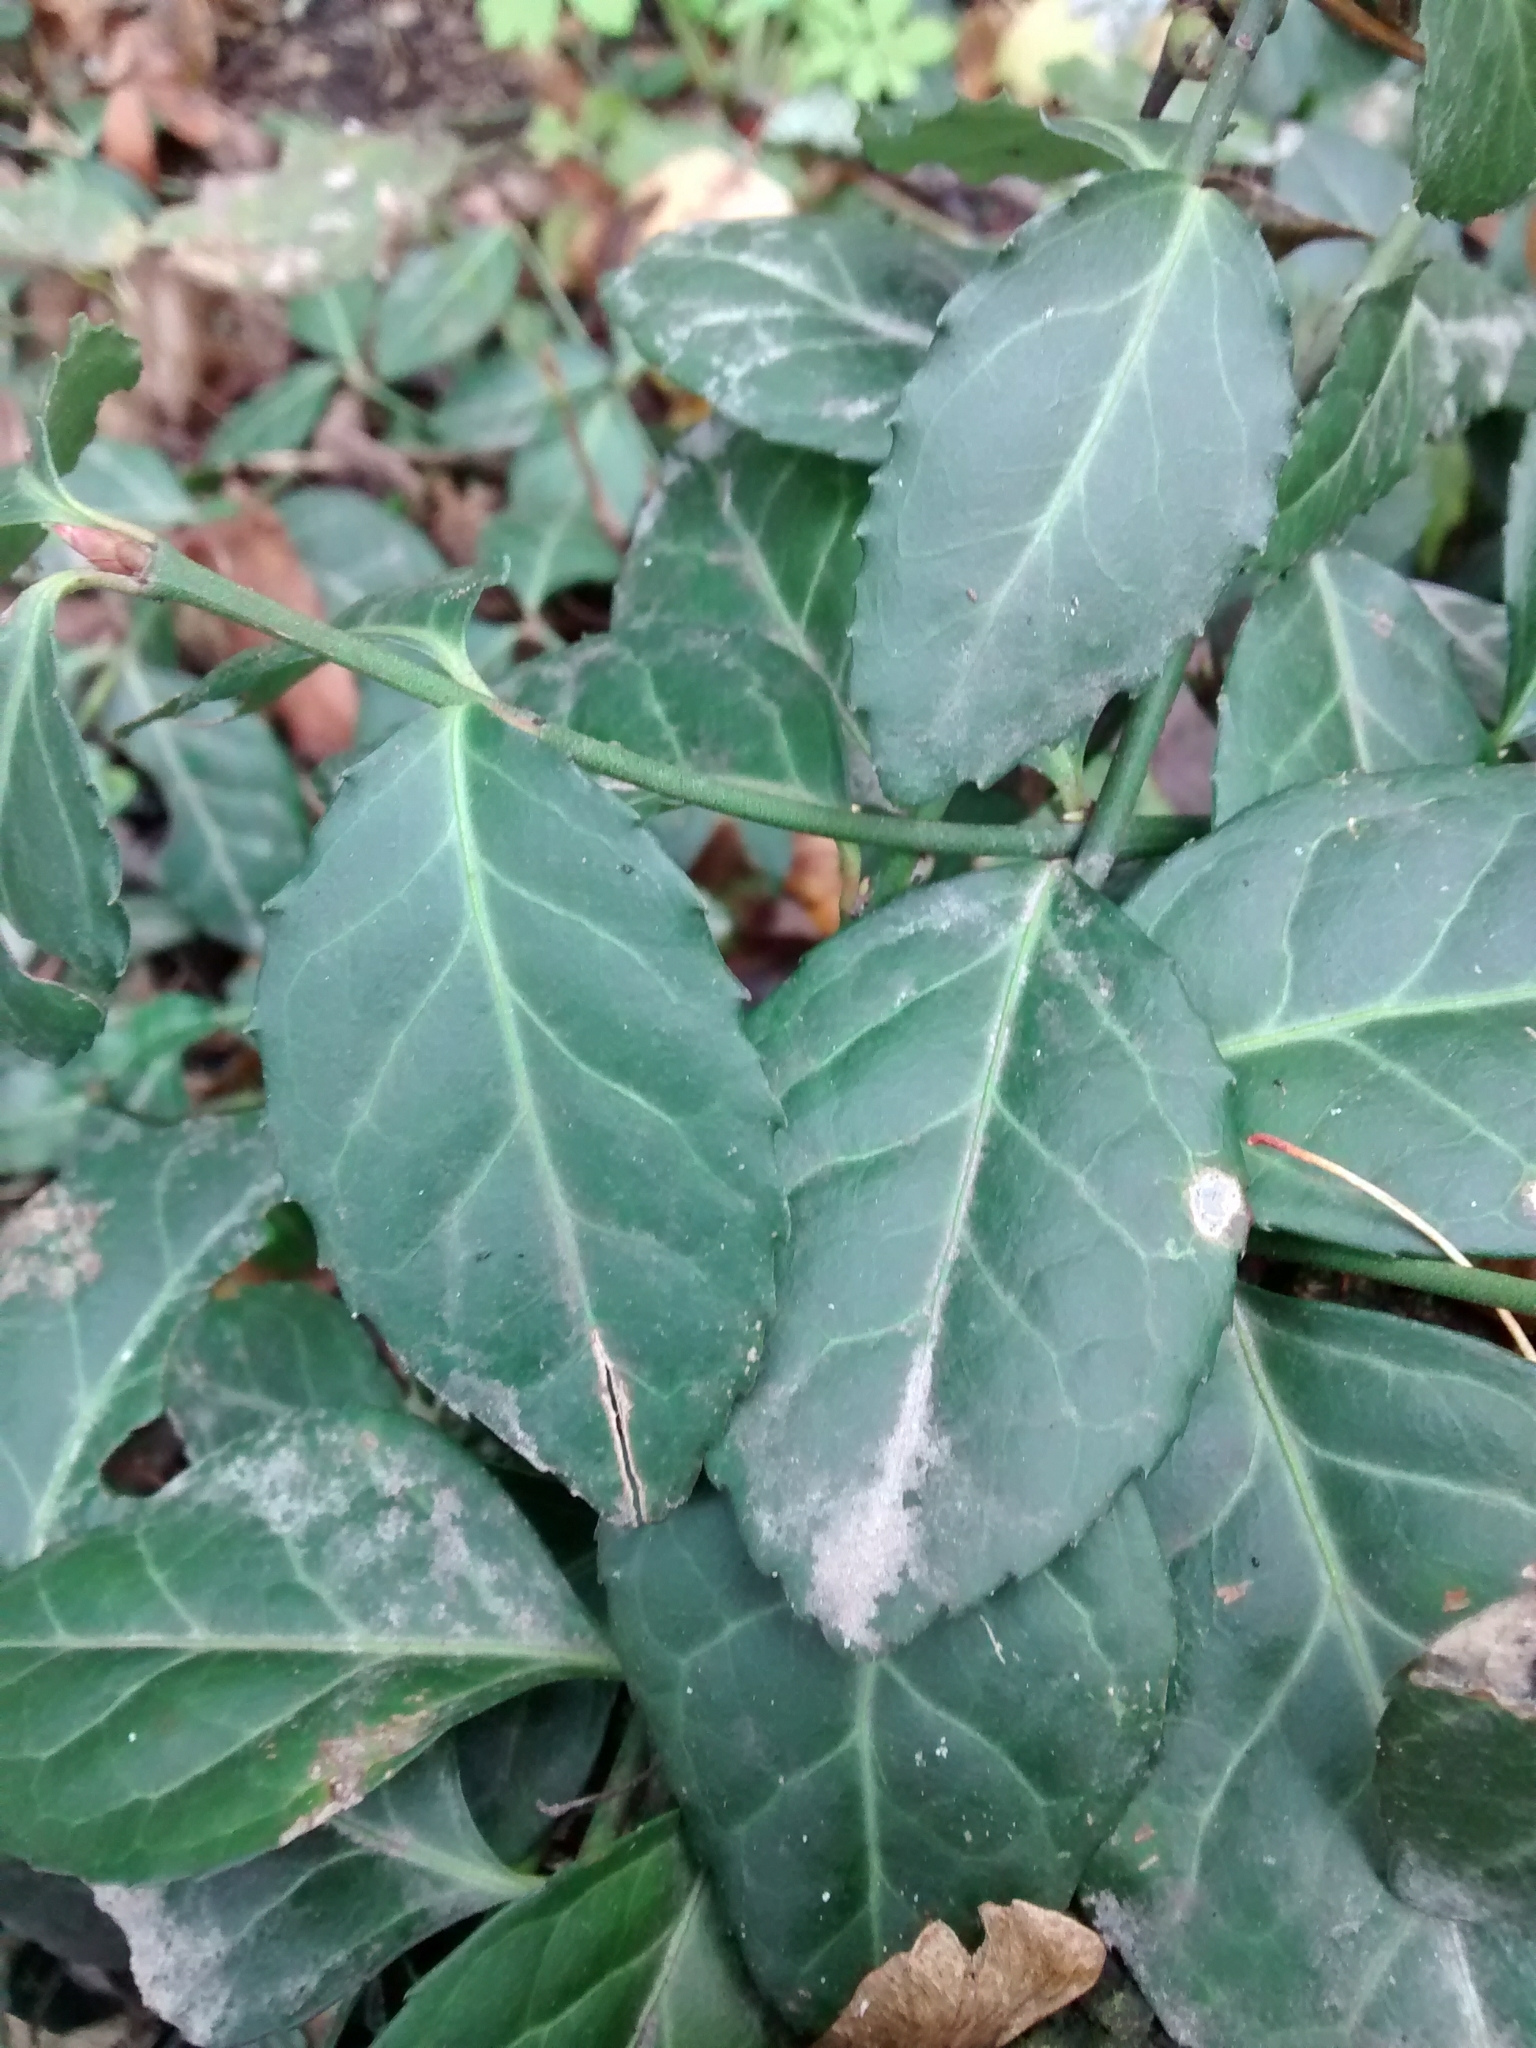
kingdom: Plantae
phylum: Tracheophyta
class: Magnoliopsida
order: Celastrales
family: Celastraceae
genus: Euonymus
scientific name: Euonymus fortunei
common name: Climbing euonymus
